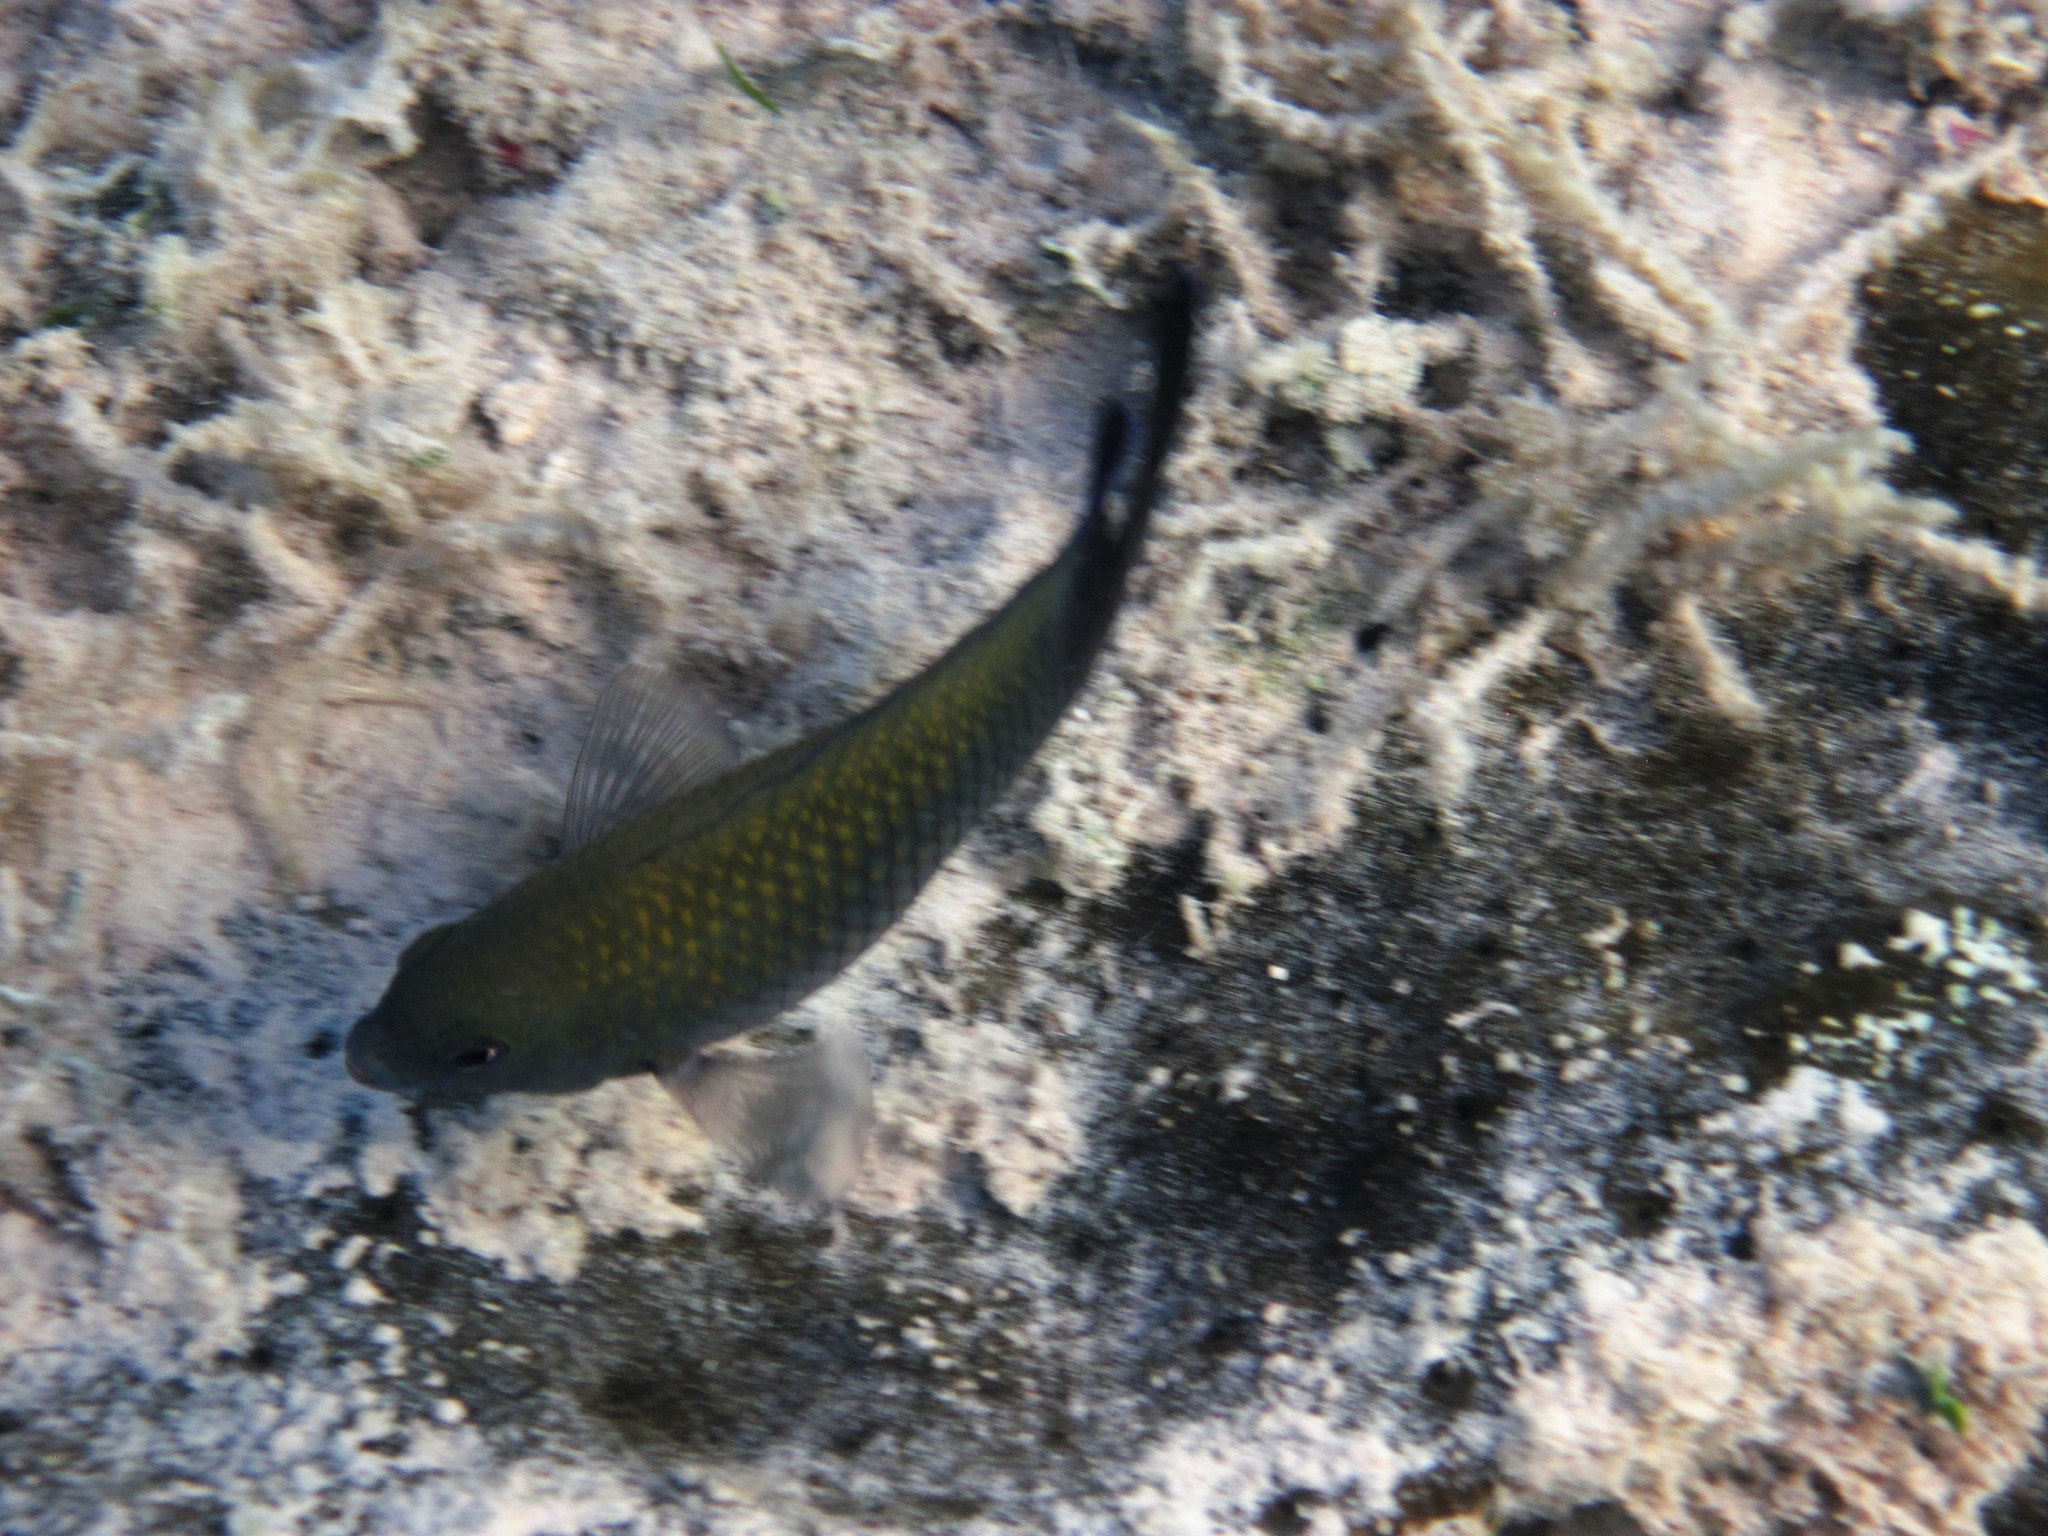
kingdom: Animalia
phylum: Chordata
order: Perciformes
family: Pomacentridae
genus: Stegastes
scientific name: Stegastes
